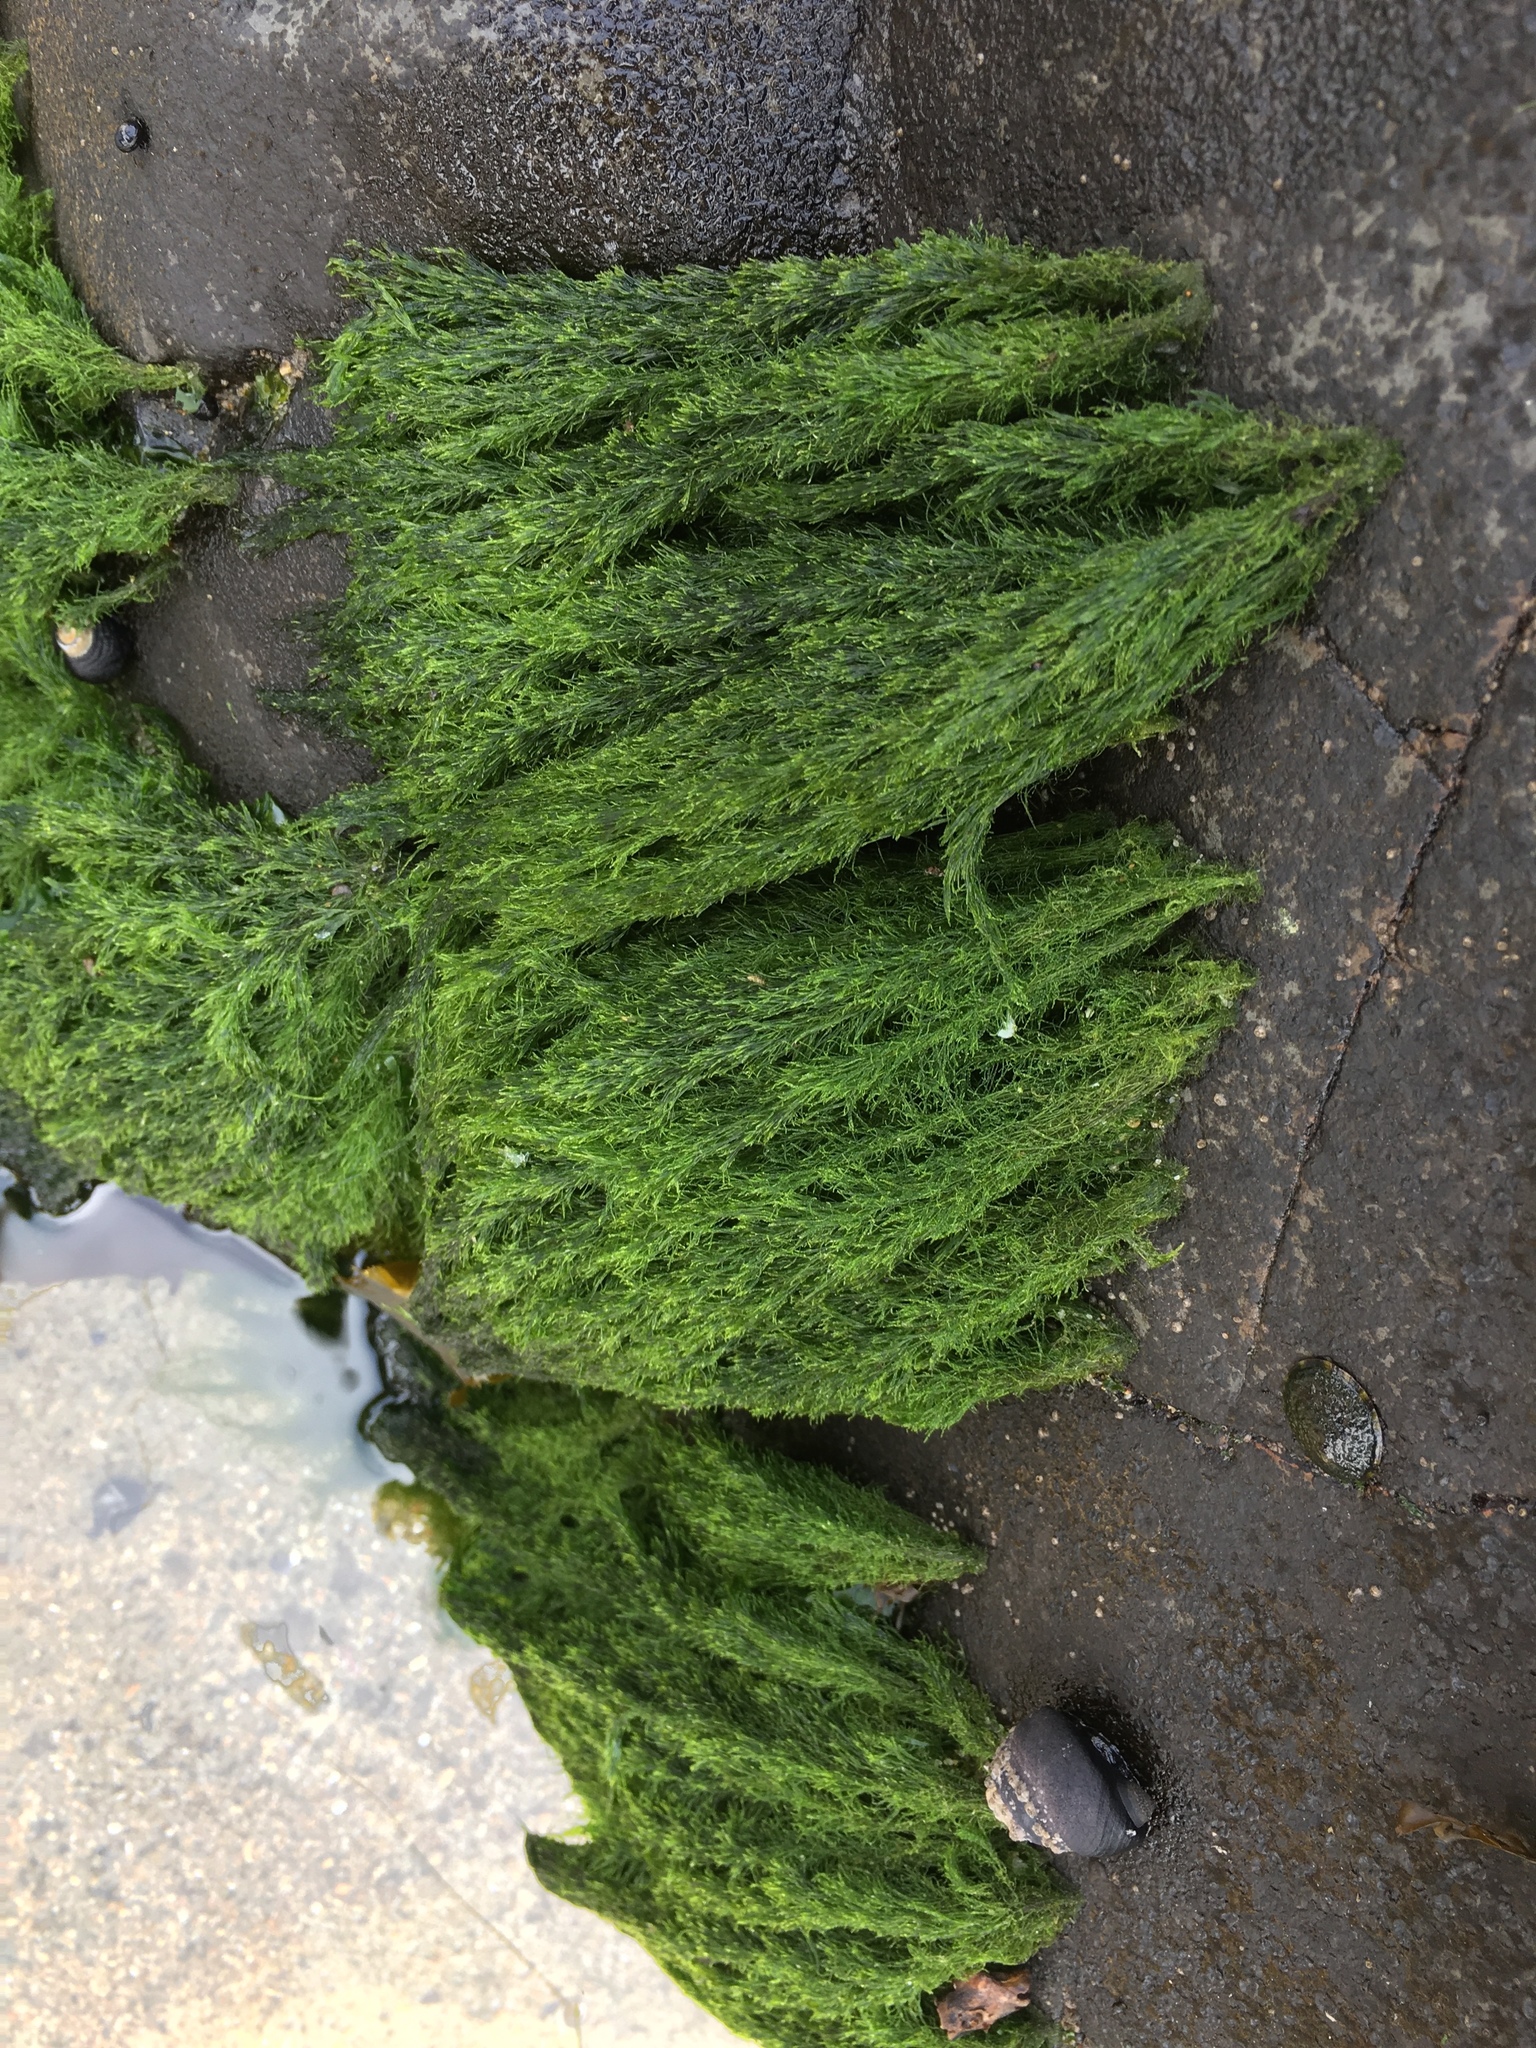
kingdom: Plantae
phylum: Chlorophyta
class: Ulvophyceae
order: Ulotrichales
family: Ulotrichaceae
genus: Acrosiphonia
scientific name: Acrosiphonia
